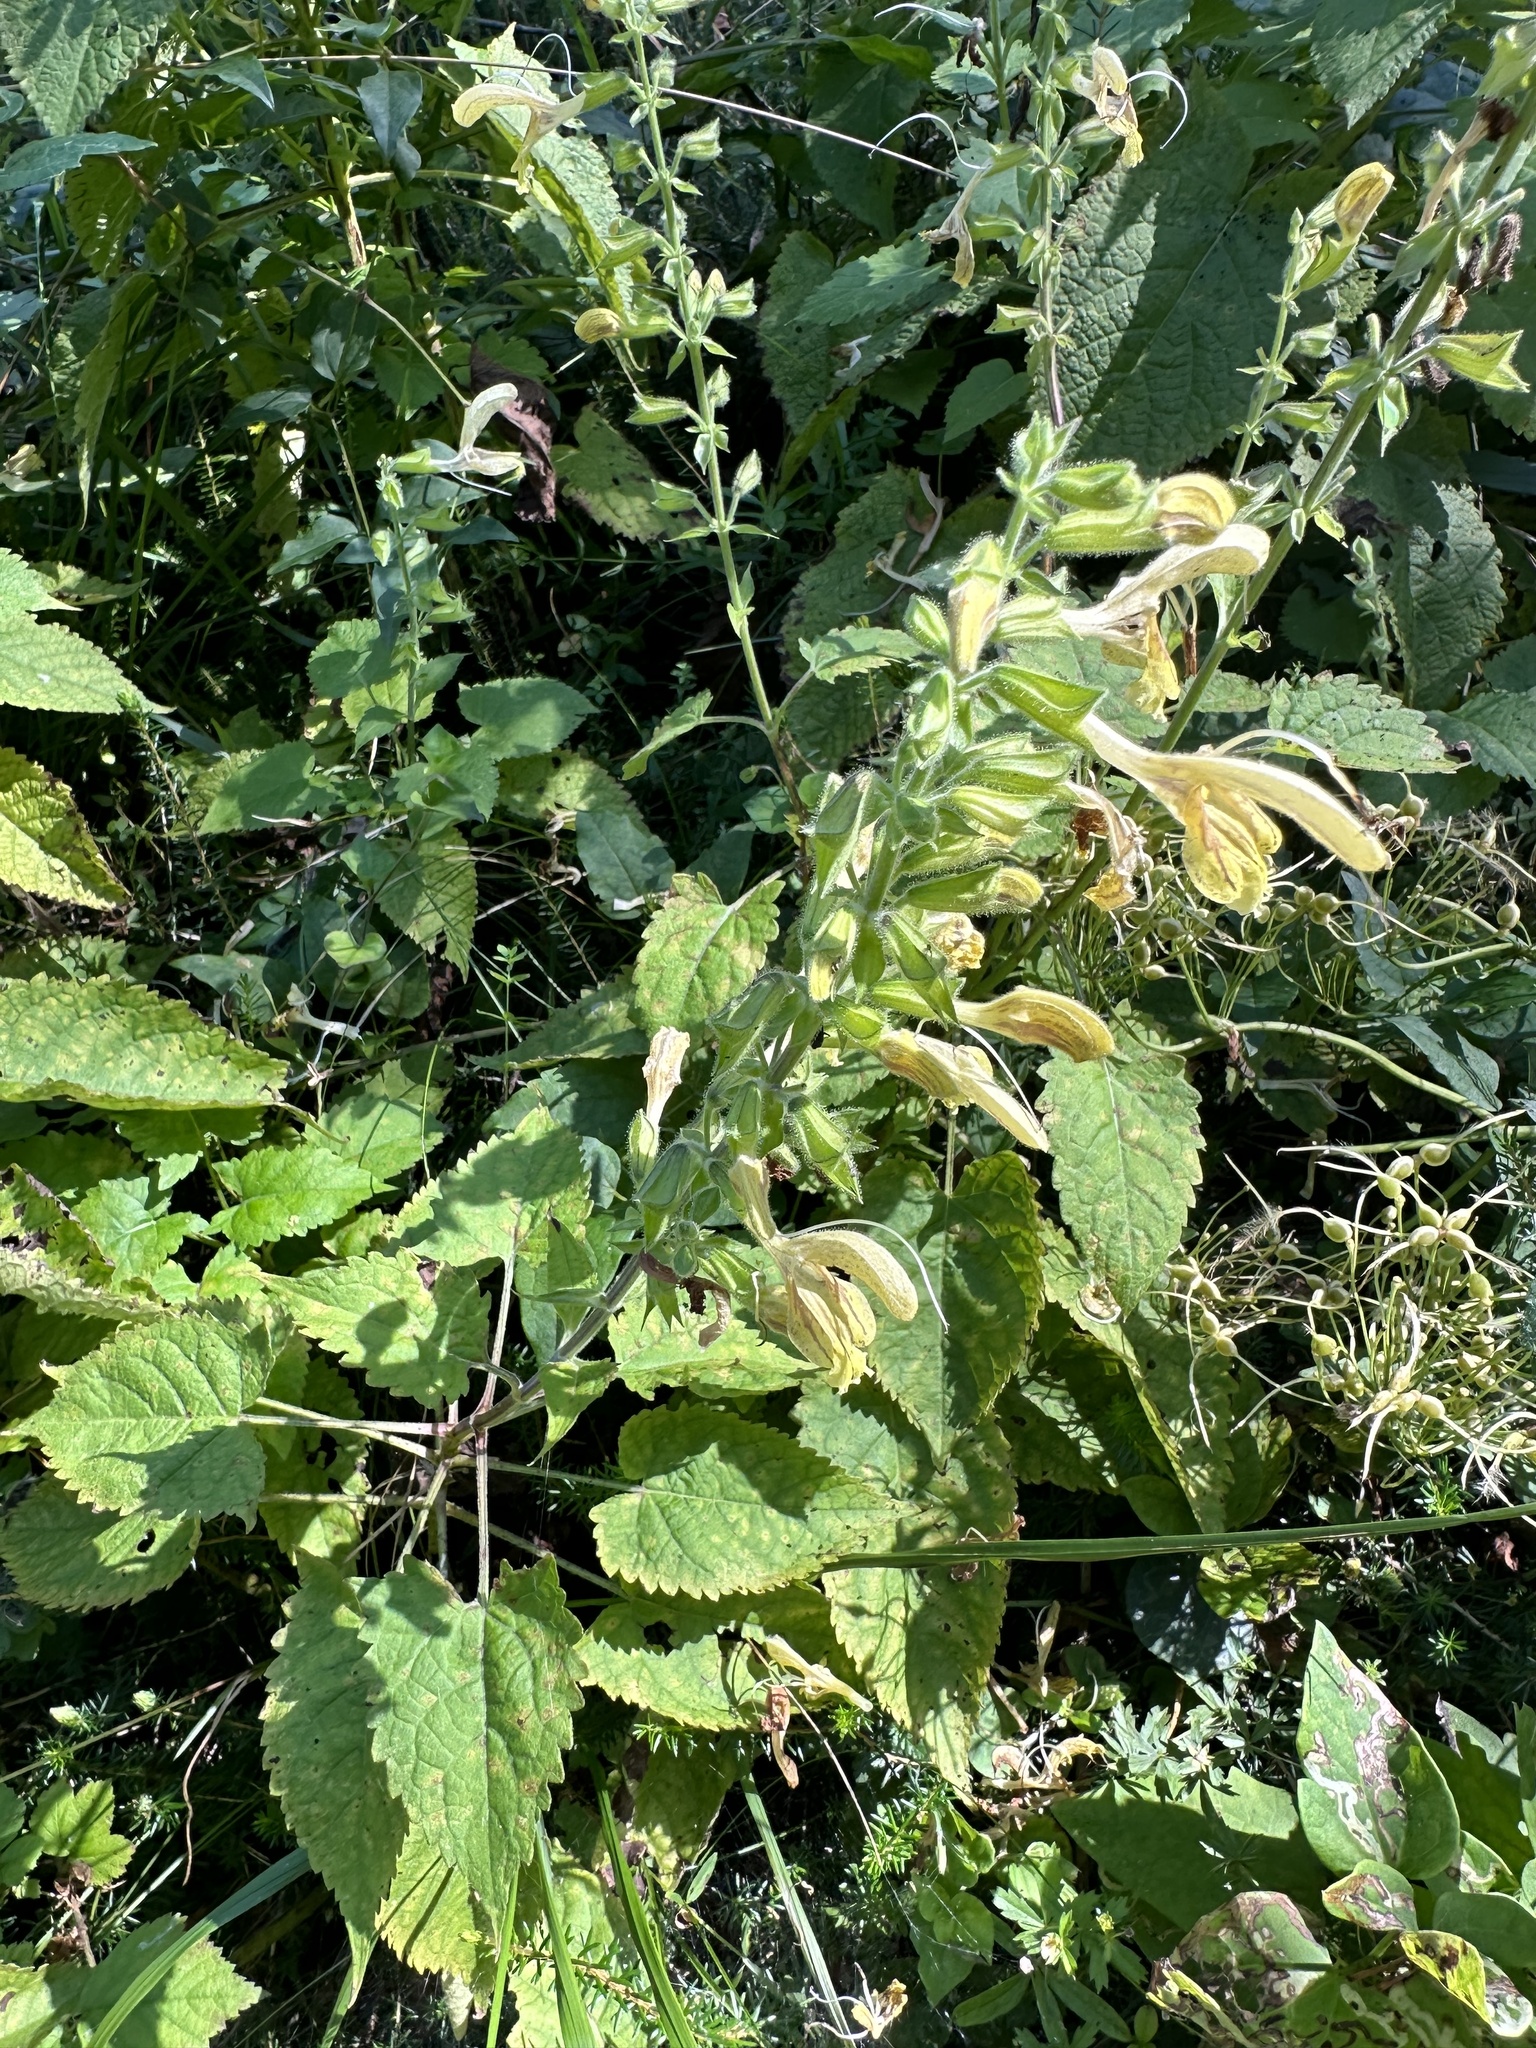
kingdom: Plantae
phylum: Tracheophyta
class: Magnoliopsida
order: Lamiales
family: Lamiaceae
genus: Salvia
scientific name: Salvia glutinosa
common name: Sticky clary
